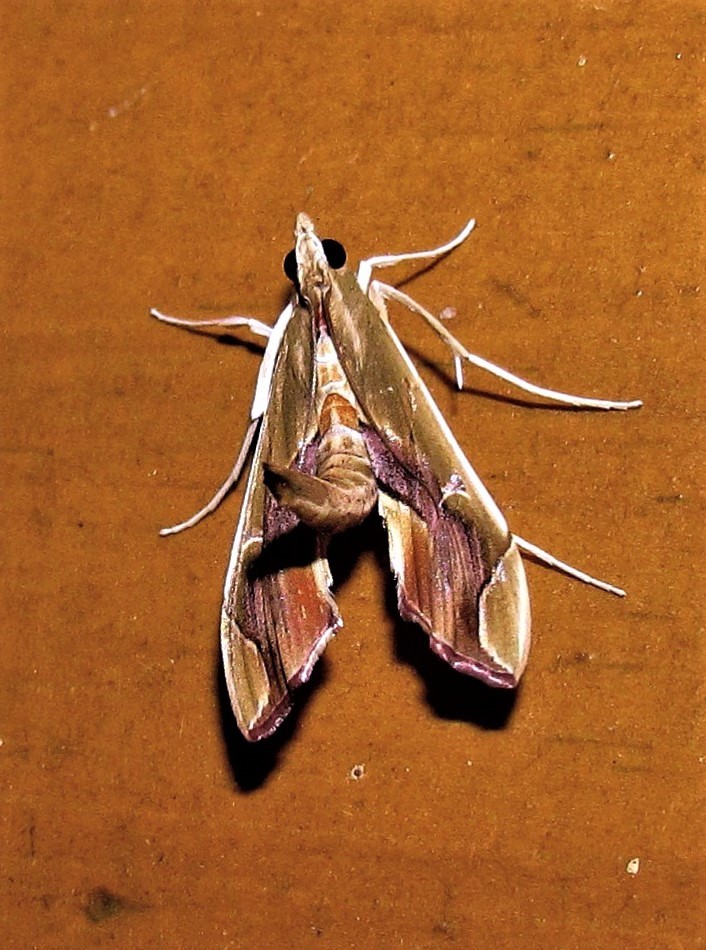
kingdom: Animalia
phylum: Arthropoda
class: Insecta
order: Lepidoptera
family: Crambidae
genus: Agathodes
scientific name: Agathodes designalis
